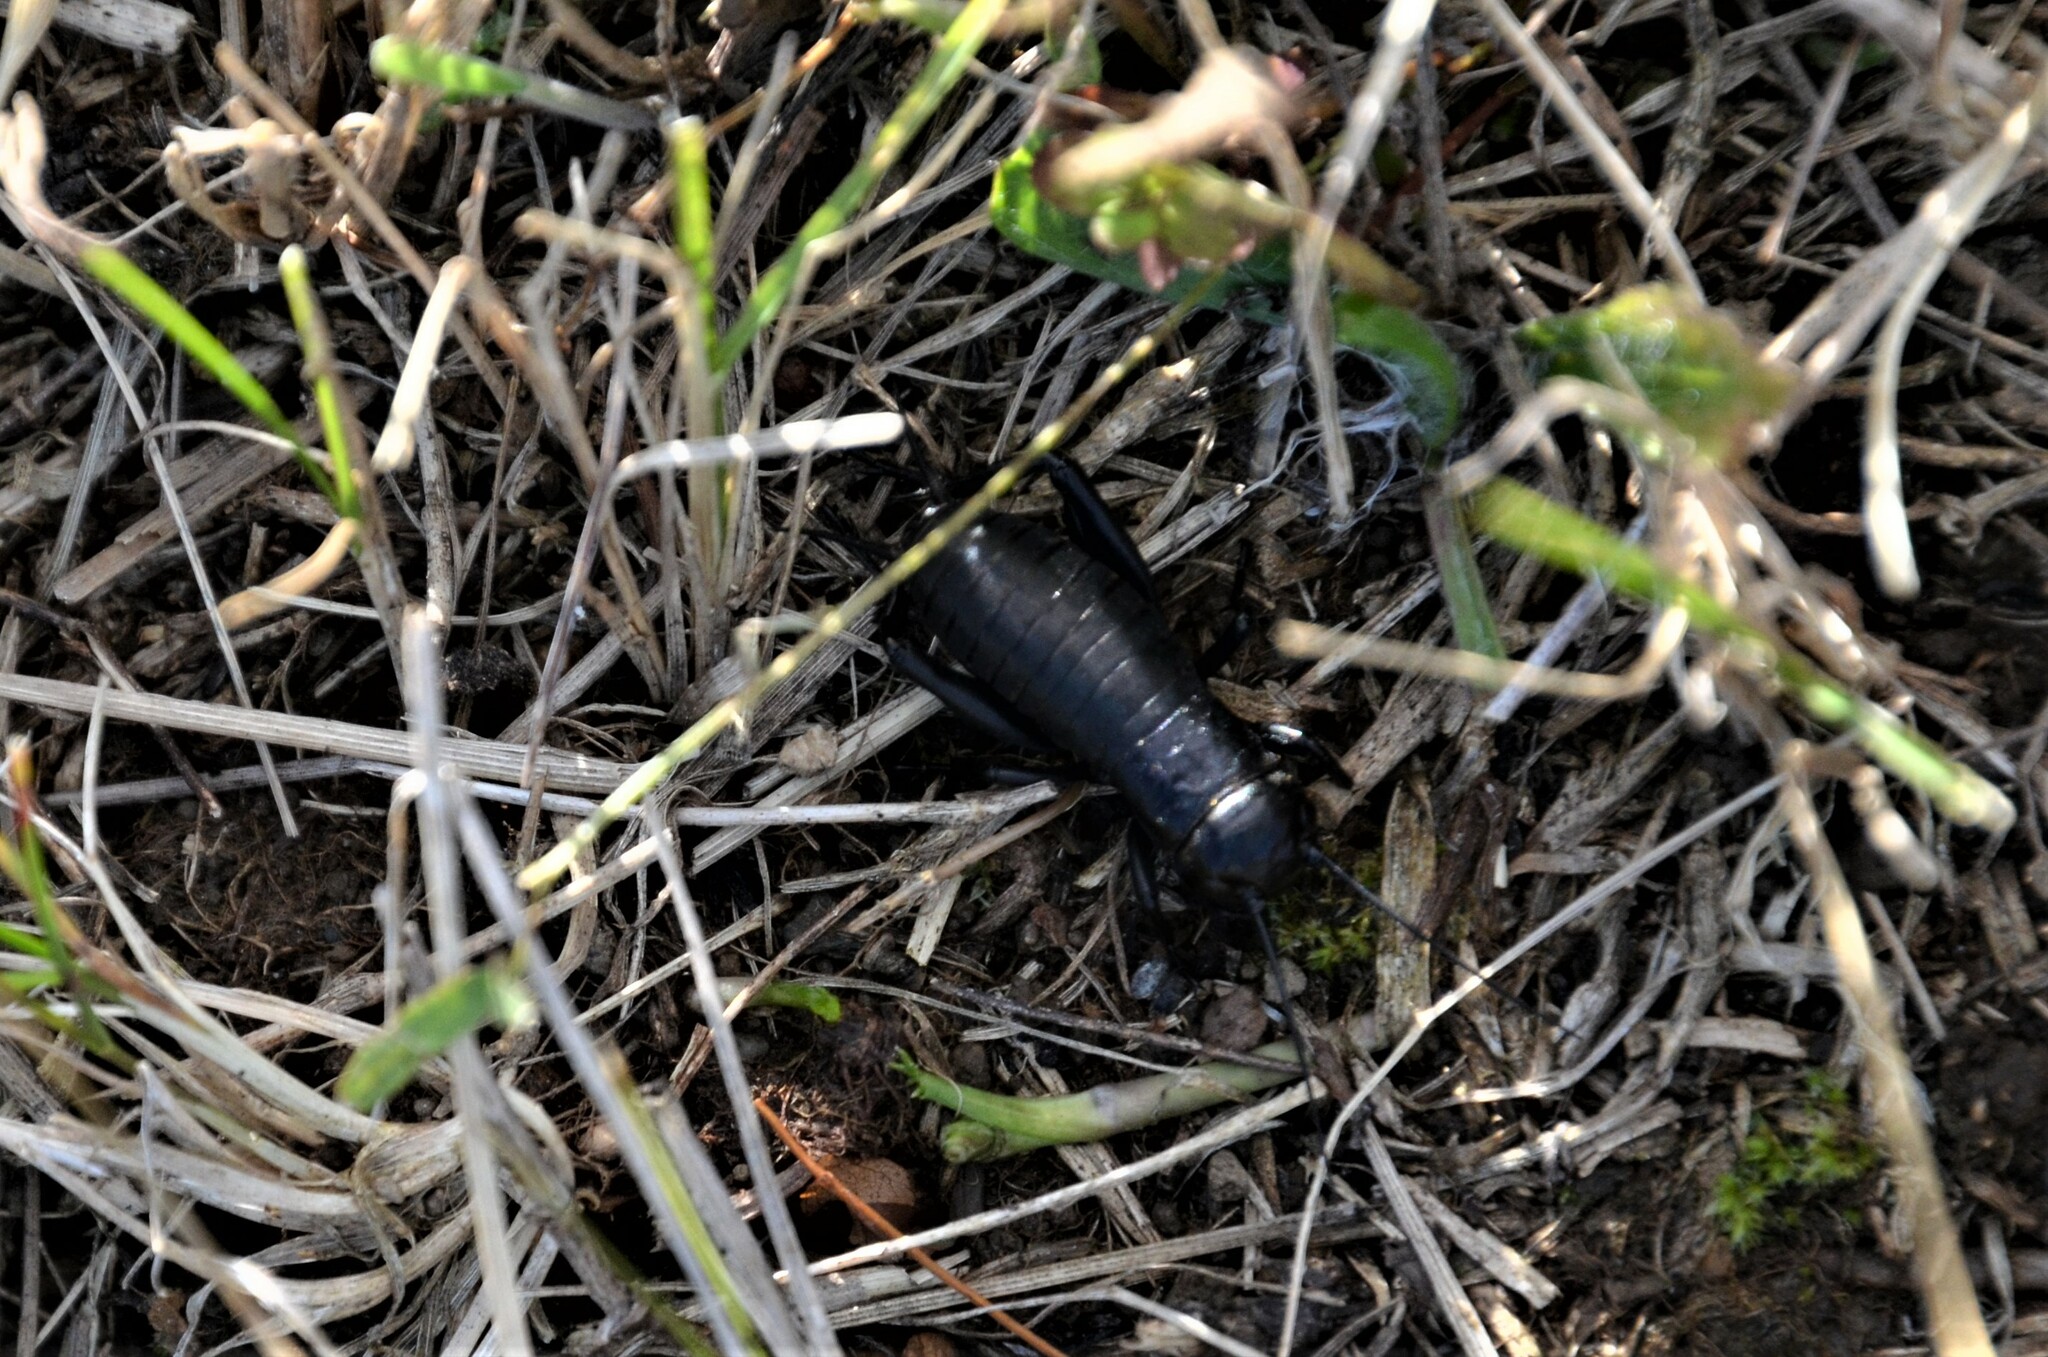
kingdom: Animalia
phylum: Arthropoda
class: Insecta
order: Orthoptera
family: Gryllidae
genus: Gryllus
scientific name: Gryllus campestris
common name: Field cricket
